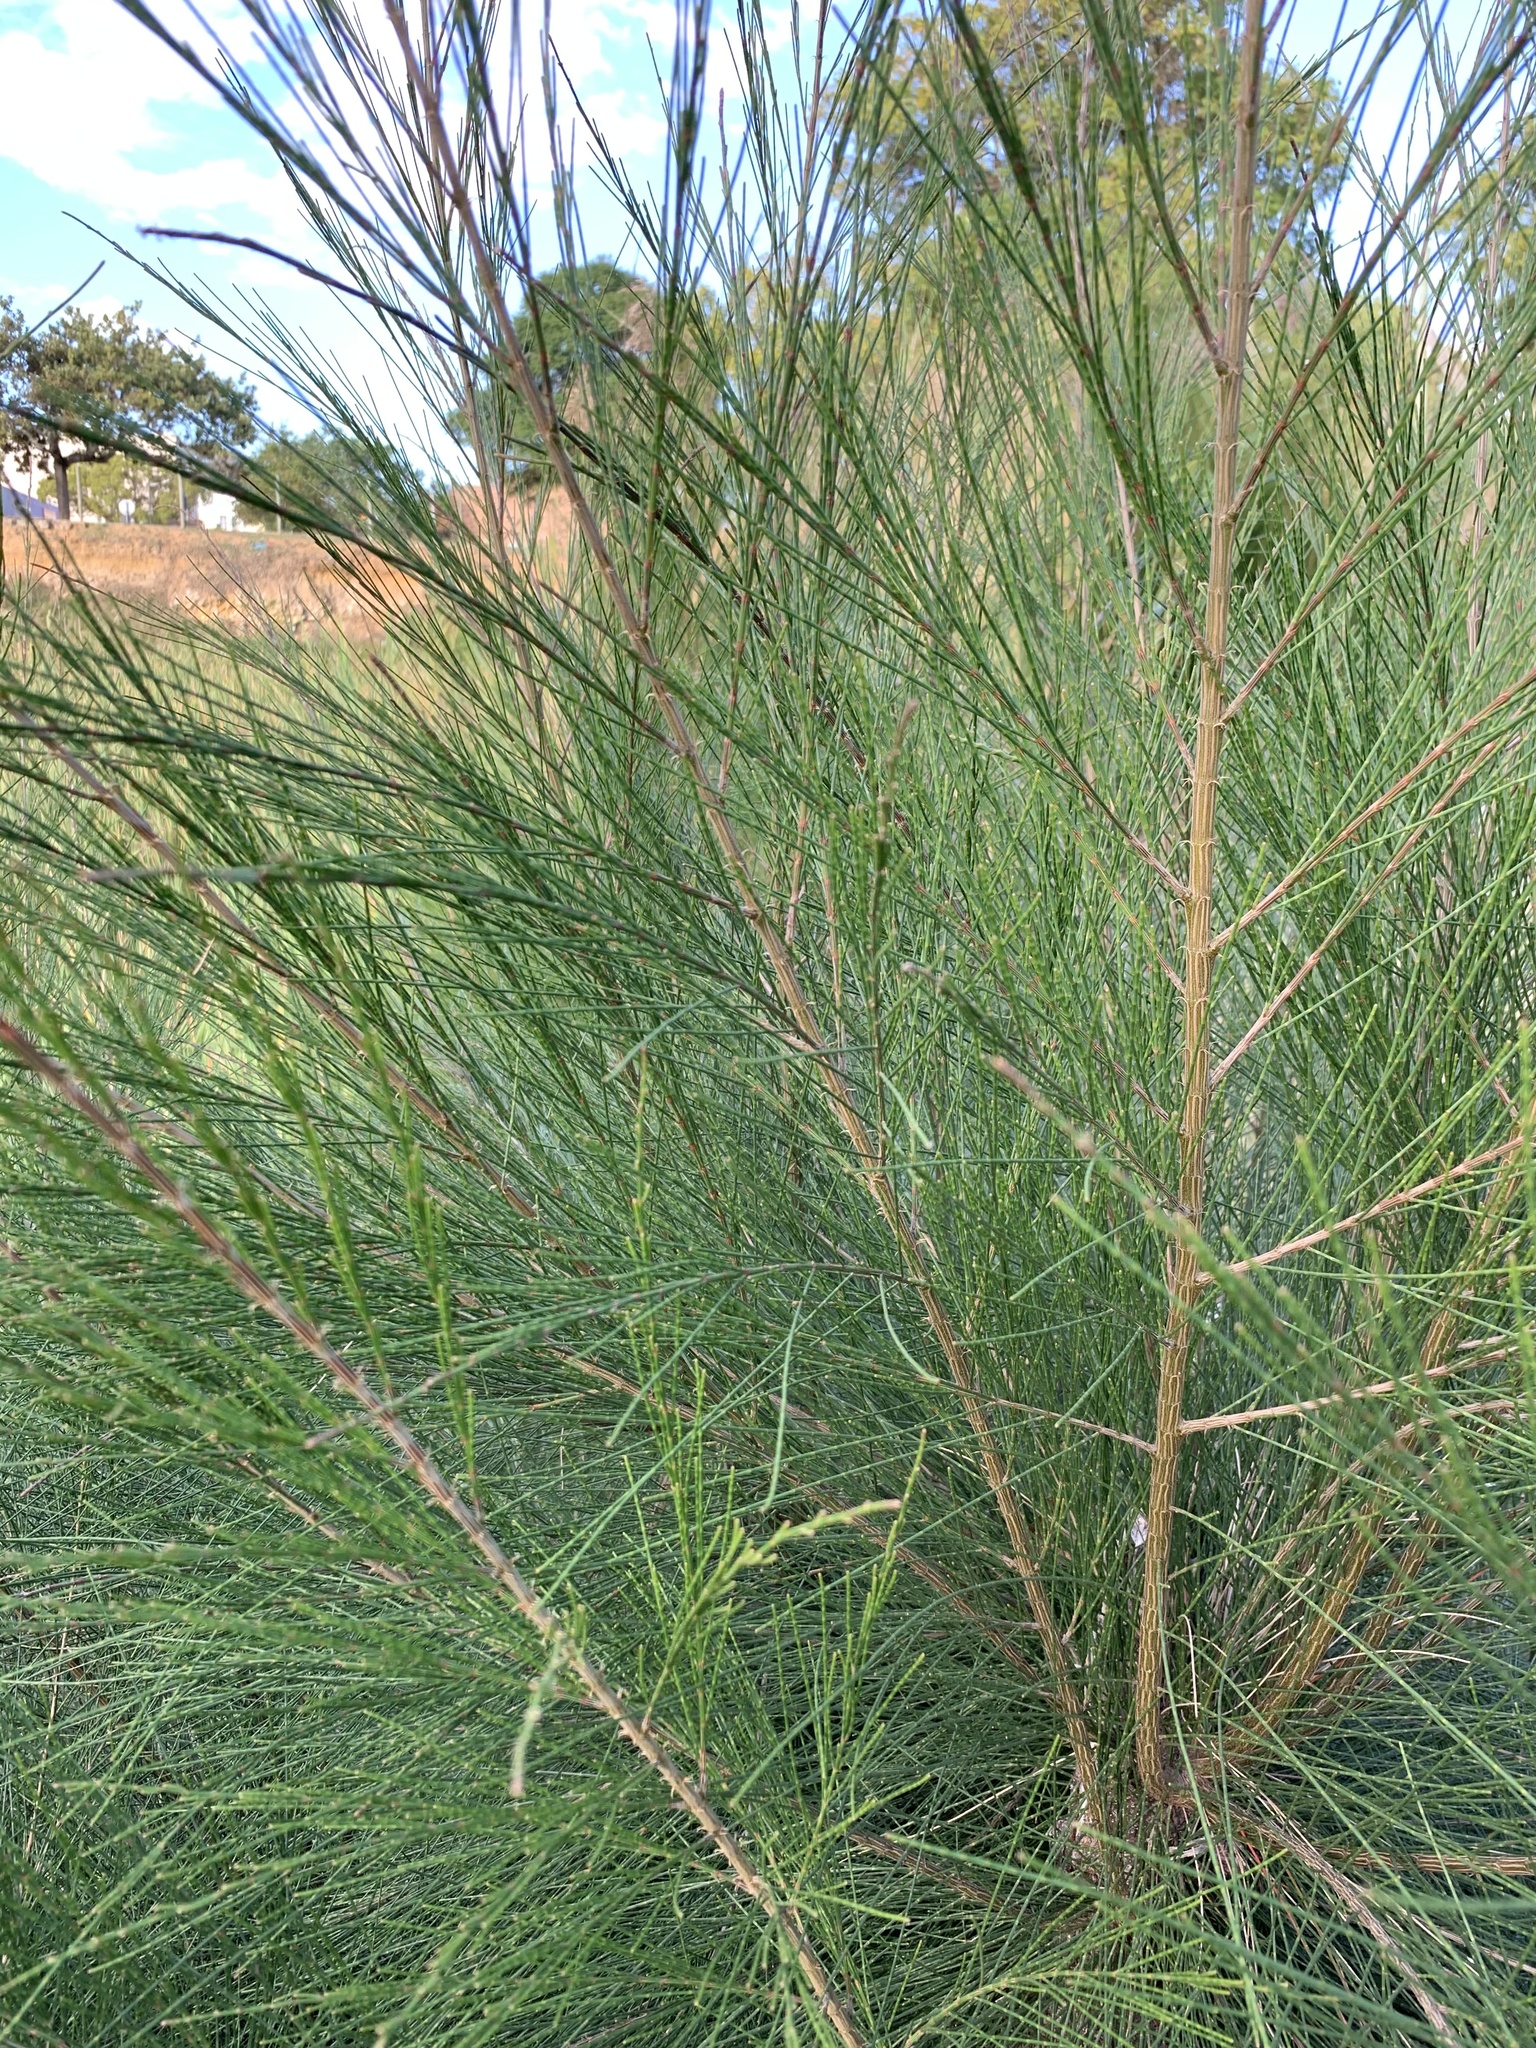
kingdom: Plantae
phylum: Tracheophyta
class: Magnoliopsida
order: Fagales
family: Casuarinaceae
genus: Casuarina
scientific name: Casuarina cunninghamiana
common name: River sheoak
